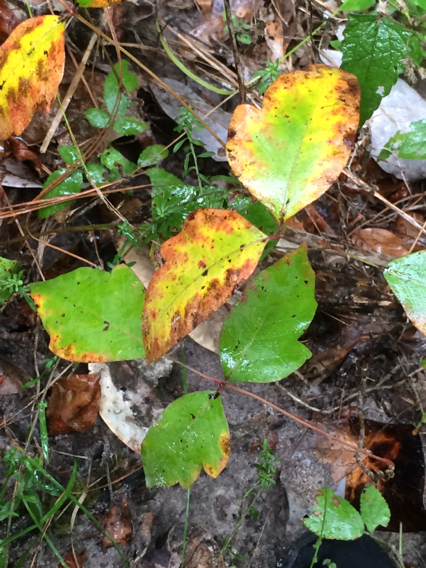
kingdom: Plantae
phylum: Tracheophyta
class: Magnoliopsida
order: Sapindales
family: Anacardiaceae
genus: Toxicodendron
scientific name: Toxicodendron radicans
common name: Poison ivy
